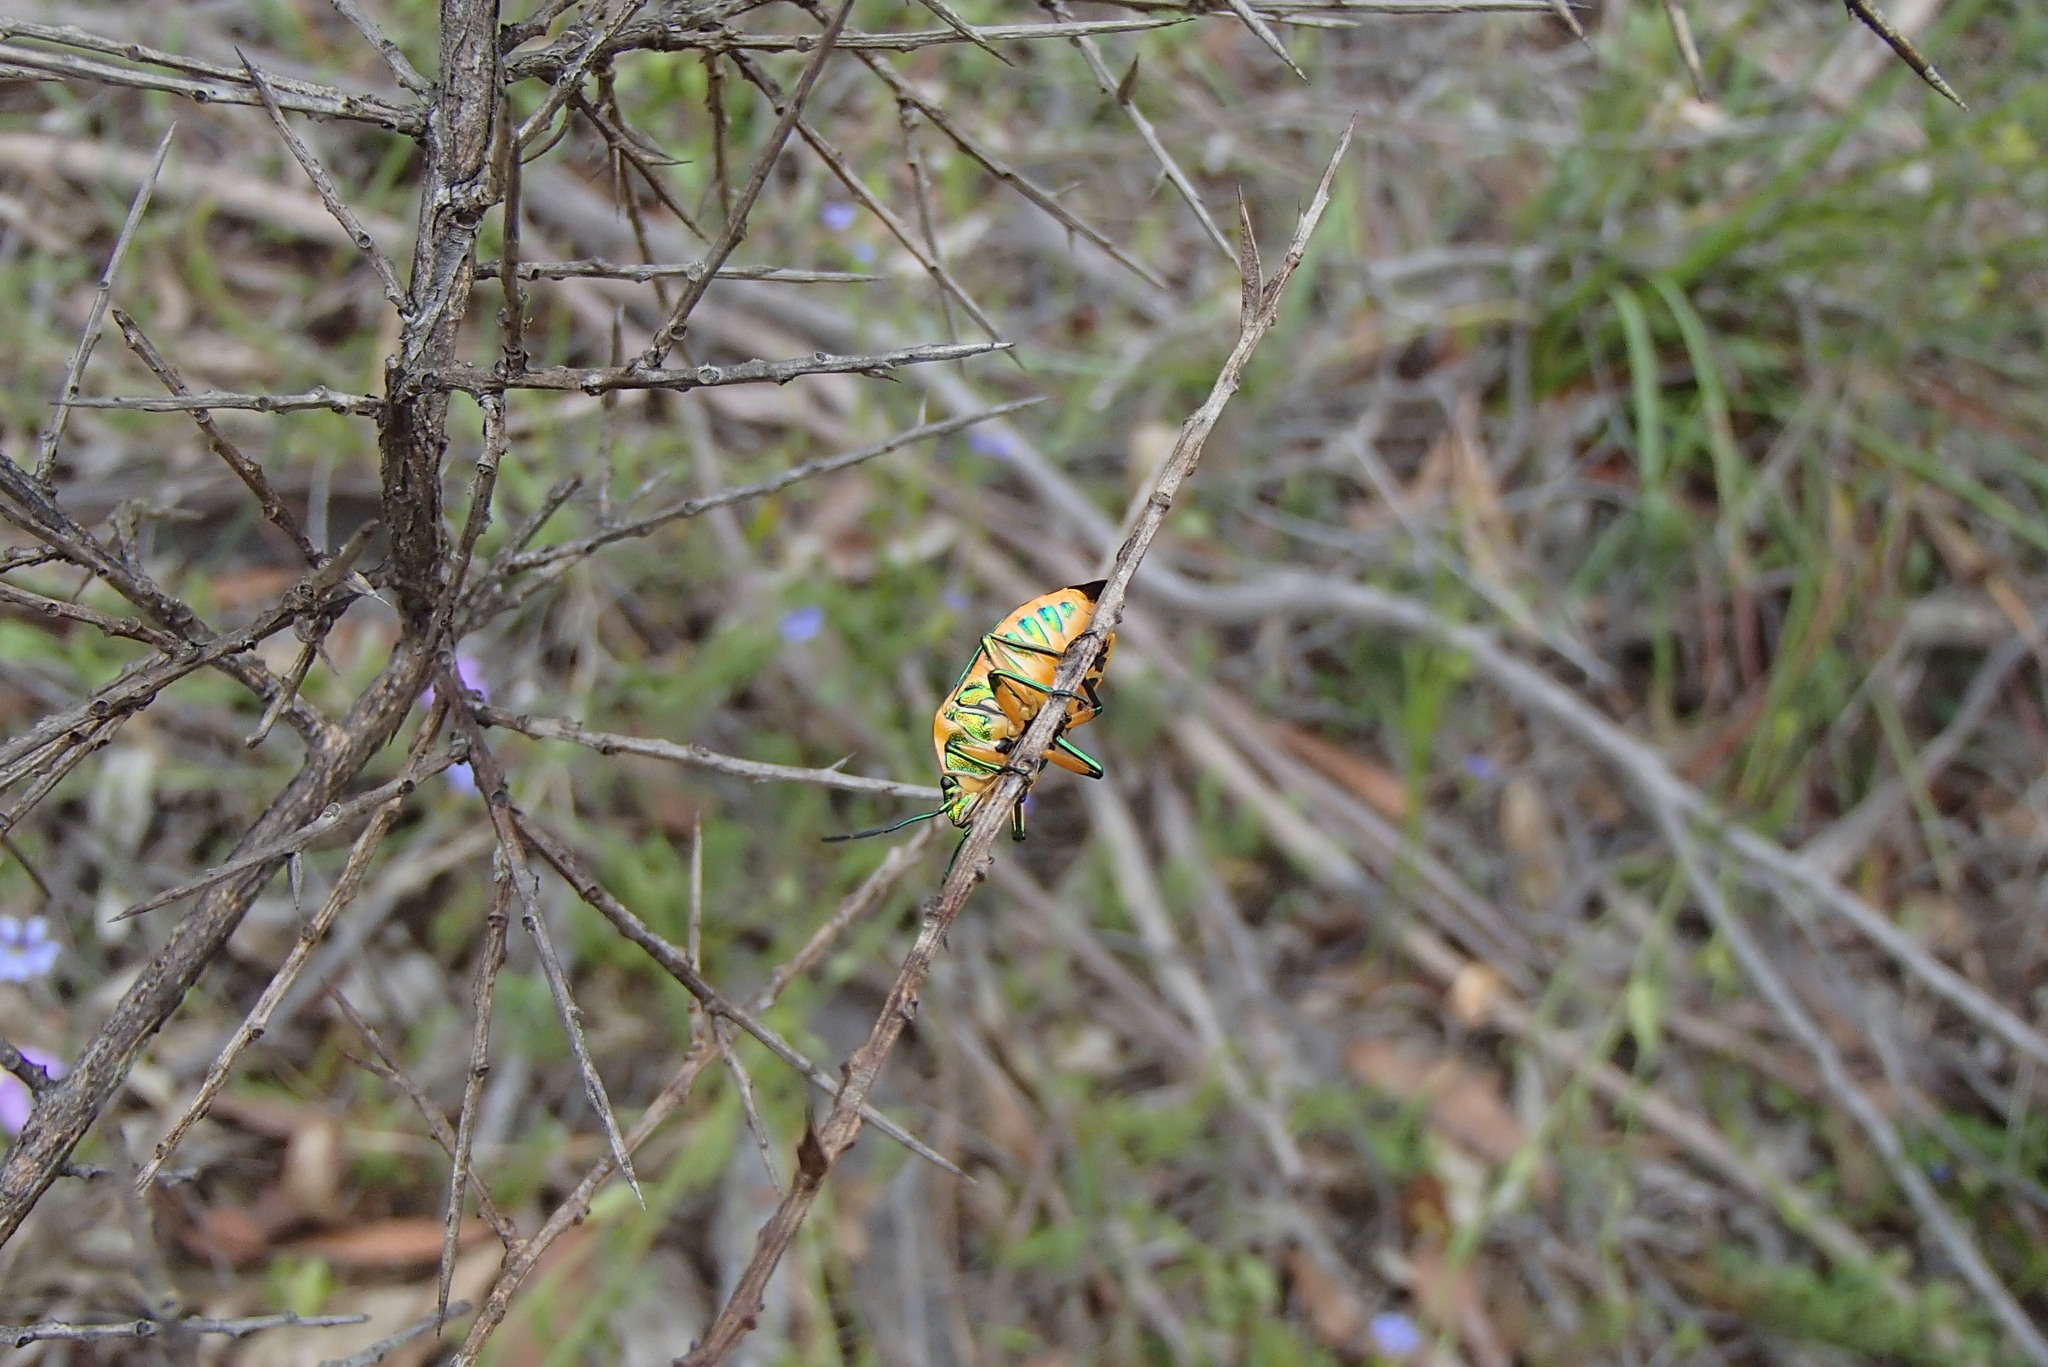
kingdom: Animalia
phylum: Arthropoda
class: Insecta
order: Hemiptera
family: Scutelleridae
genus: Scutiphora
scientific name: Scutiphora pedicellata
